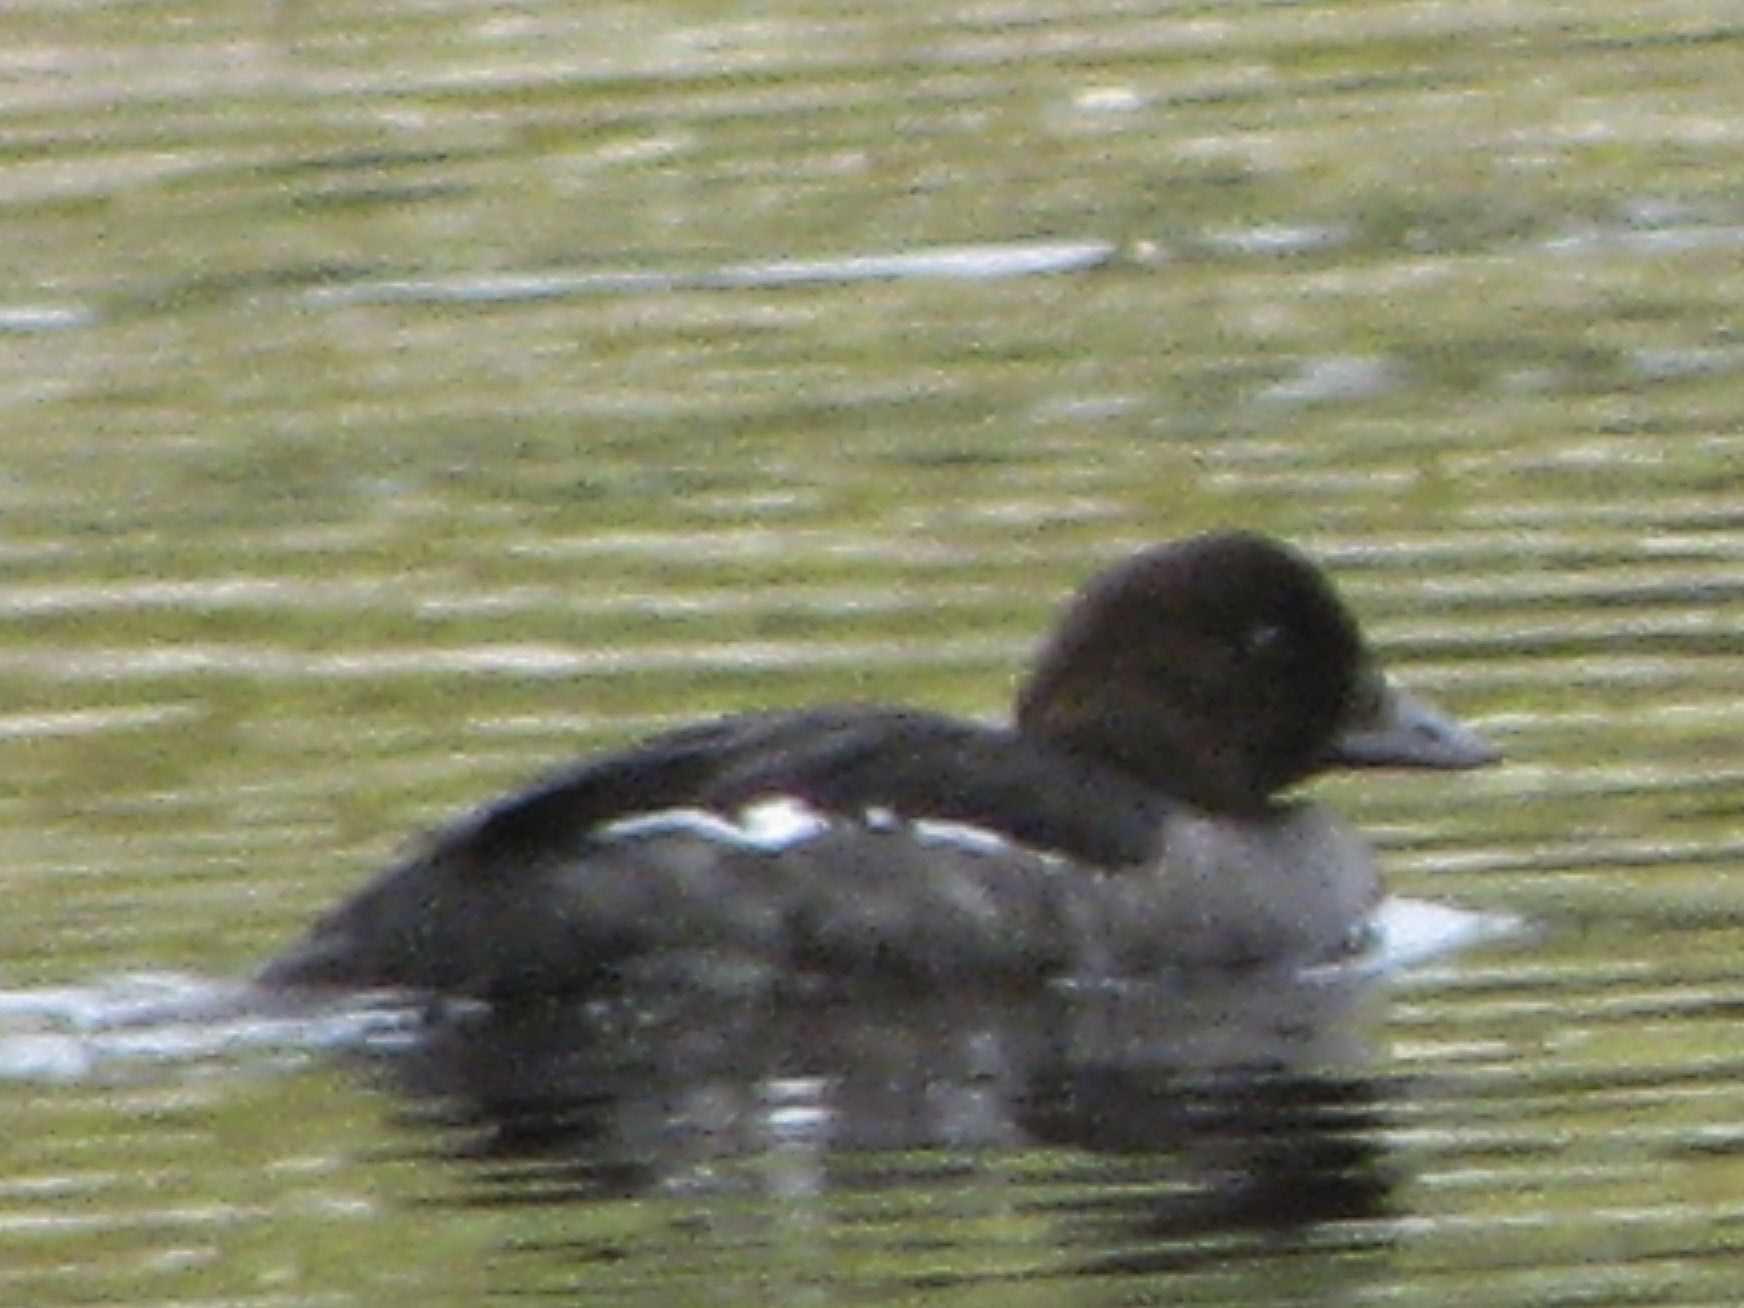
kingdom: Animalia
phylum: Chordata
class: Aves
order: Anseriformes
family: Anatidae
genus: Bucephala
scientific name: Bucephala clangula
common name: Common goldeneye
